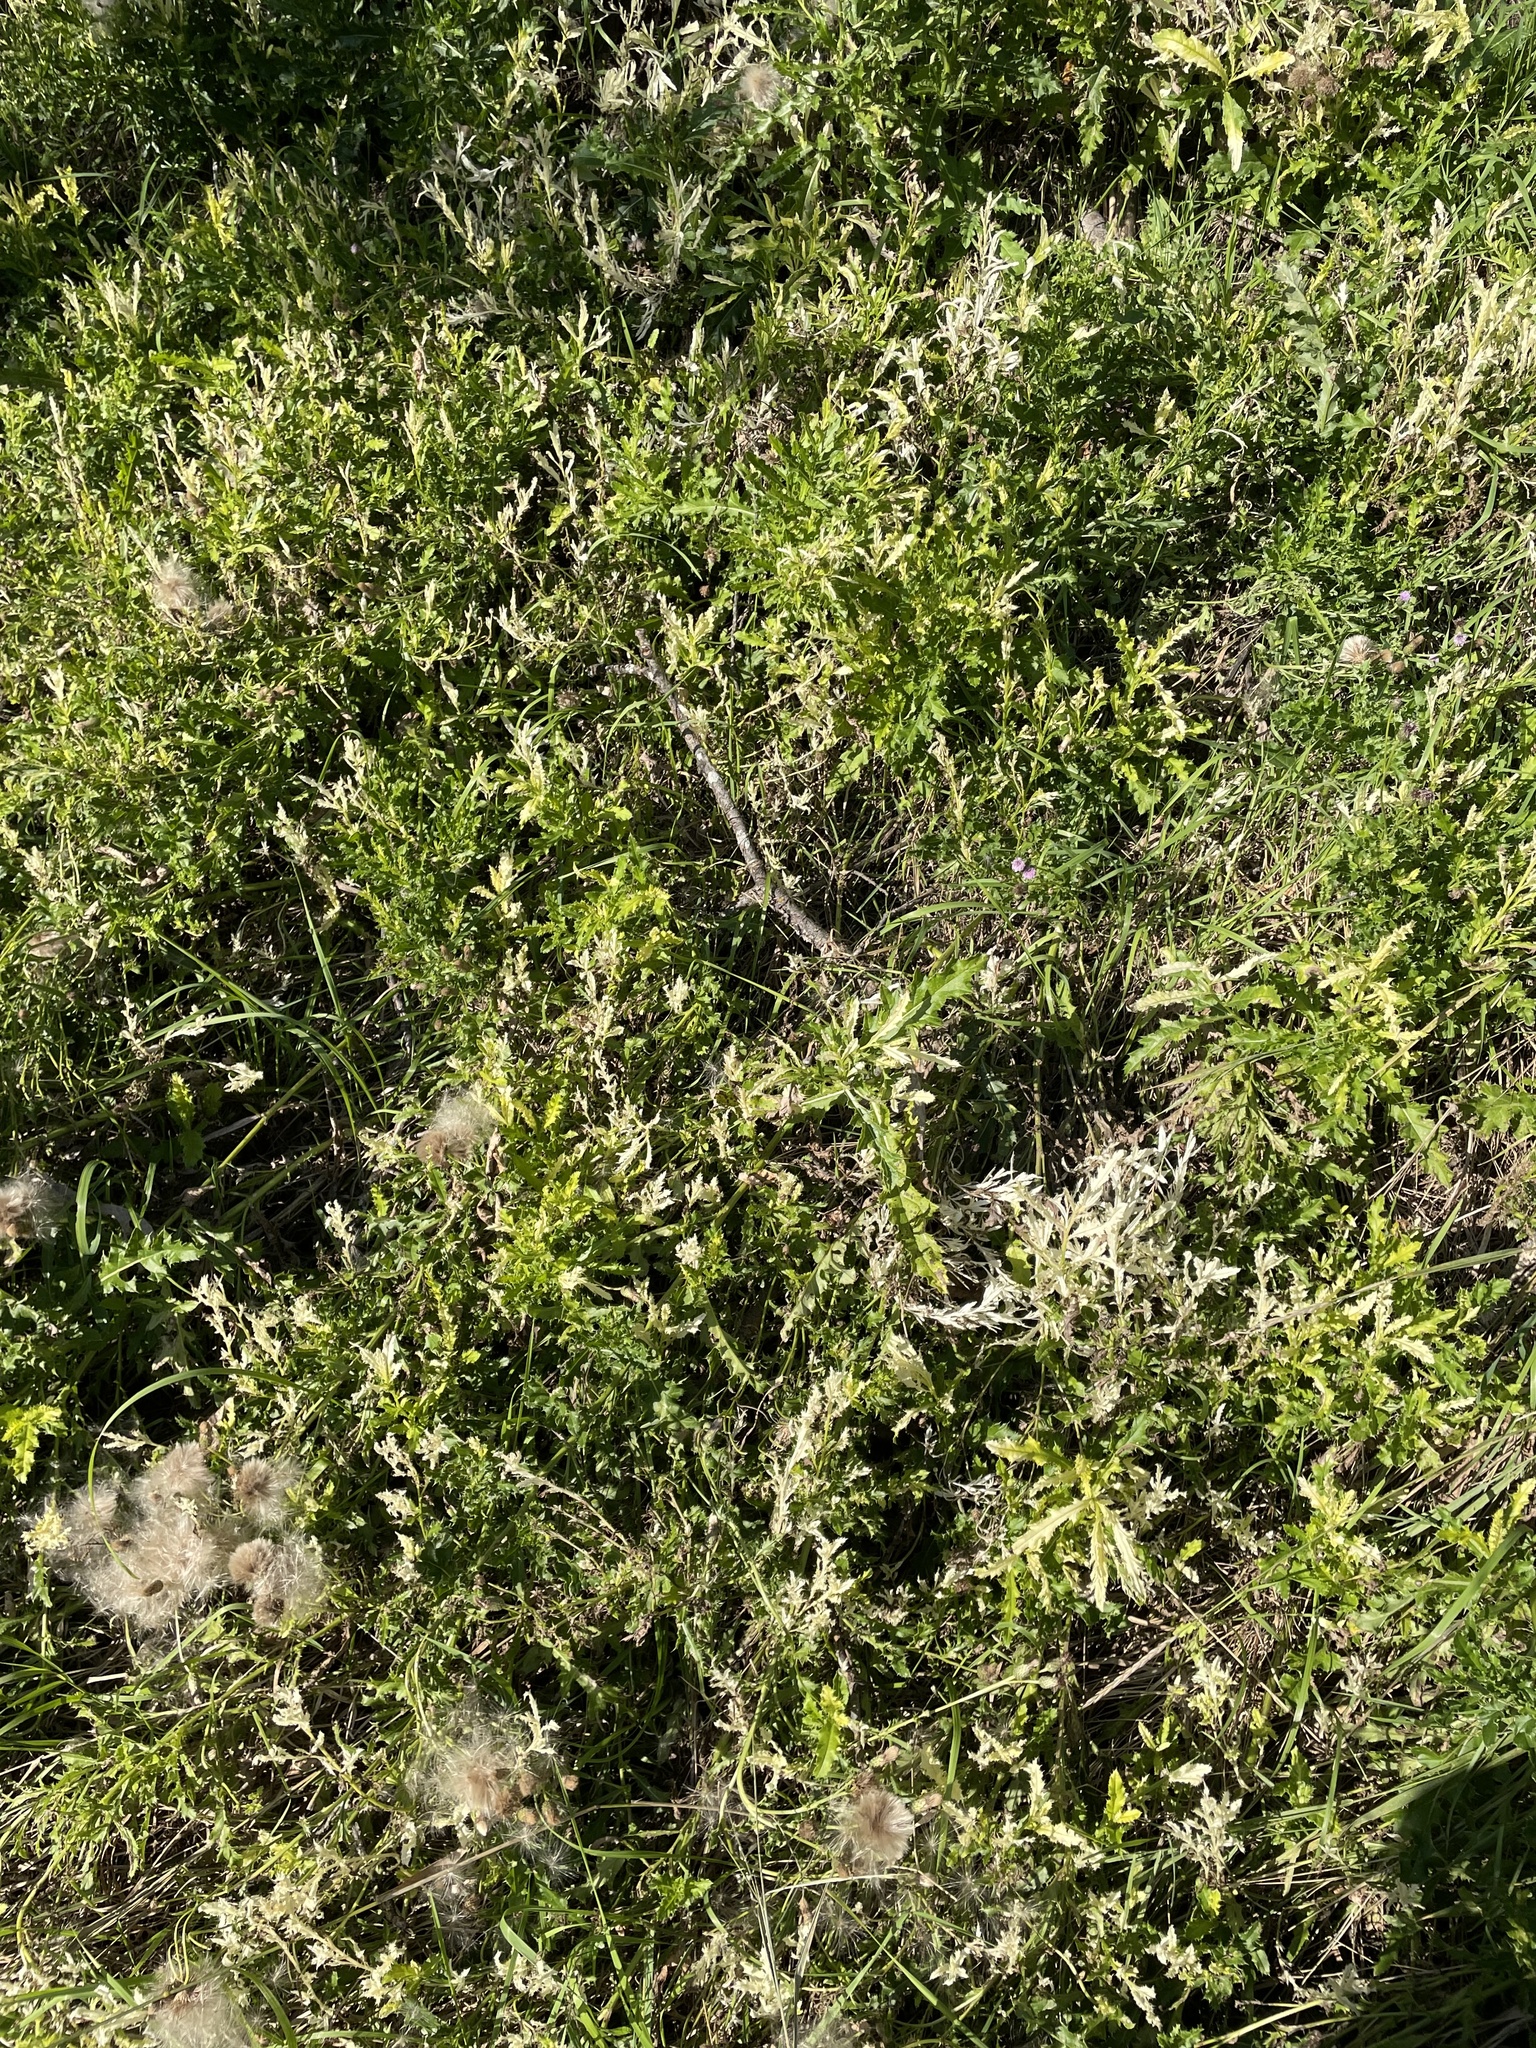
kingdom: Bacteria
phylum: Proteobacteria
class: Gammaproteobacteria
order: Pseudomonadales
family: Pseudomonadaceae
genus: Pseudomonas
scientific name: Pseudomonas syringae
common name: Bacterial speck
